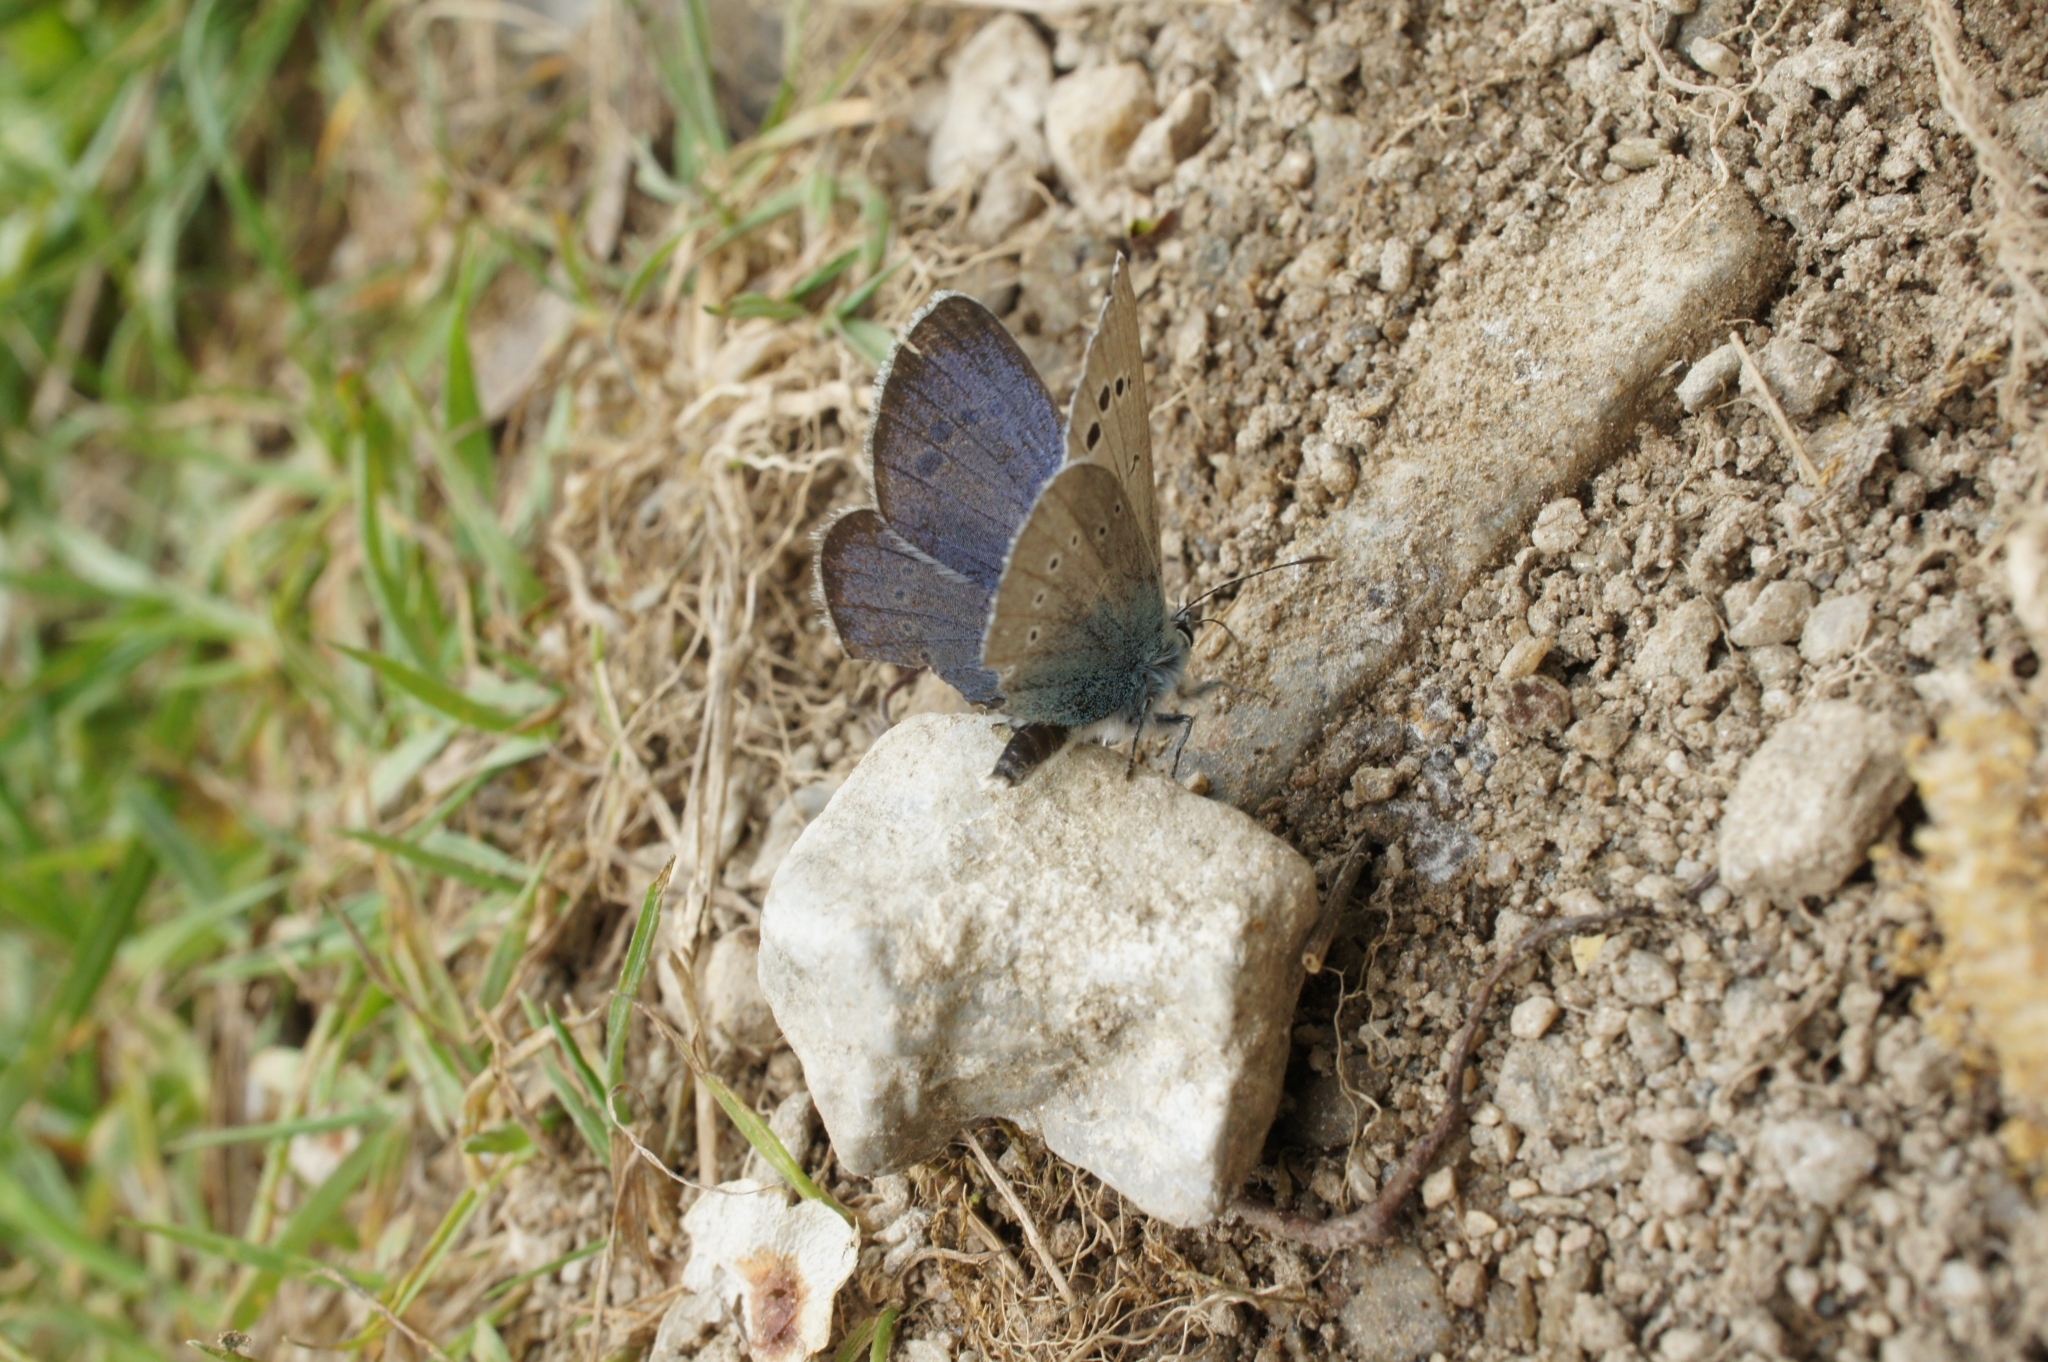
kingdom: Animalia
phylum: Arthropoda
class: Insecta
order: Lepidoptera
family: Lycaenidae
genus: Glaucopsyche
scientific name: Glaucopsyche alexis
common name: Green-underside blue
